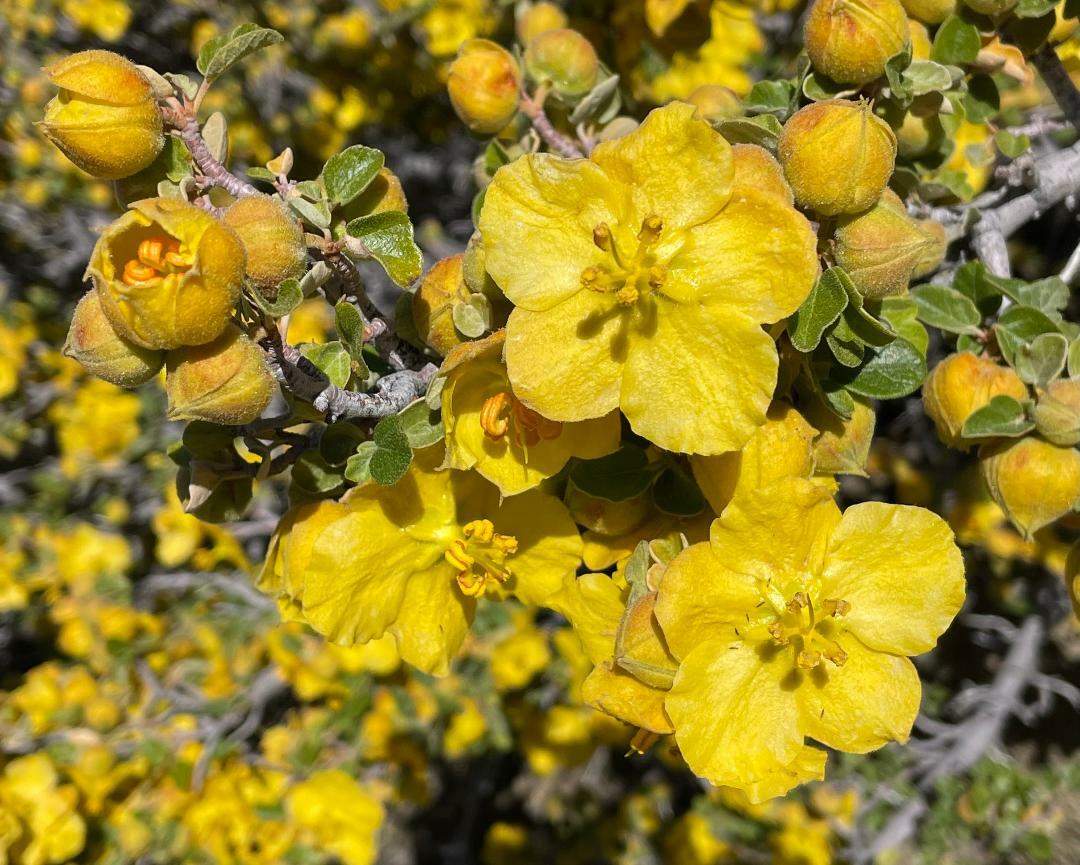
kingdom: Plantae
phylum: Tracheophyta
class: Magnoliopsida
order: Malvales
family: Malvaceae
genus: Fremontodendron
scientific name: Fremontodendron californicum
